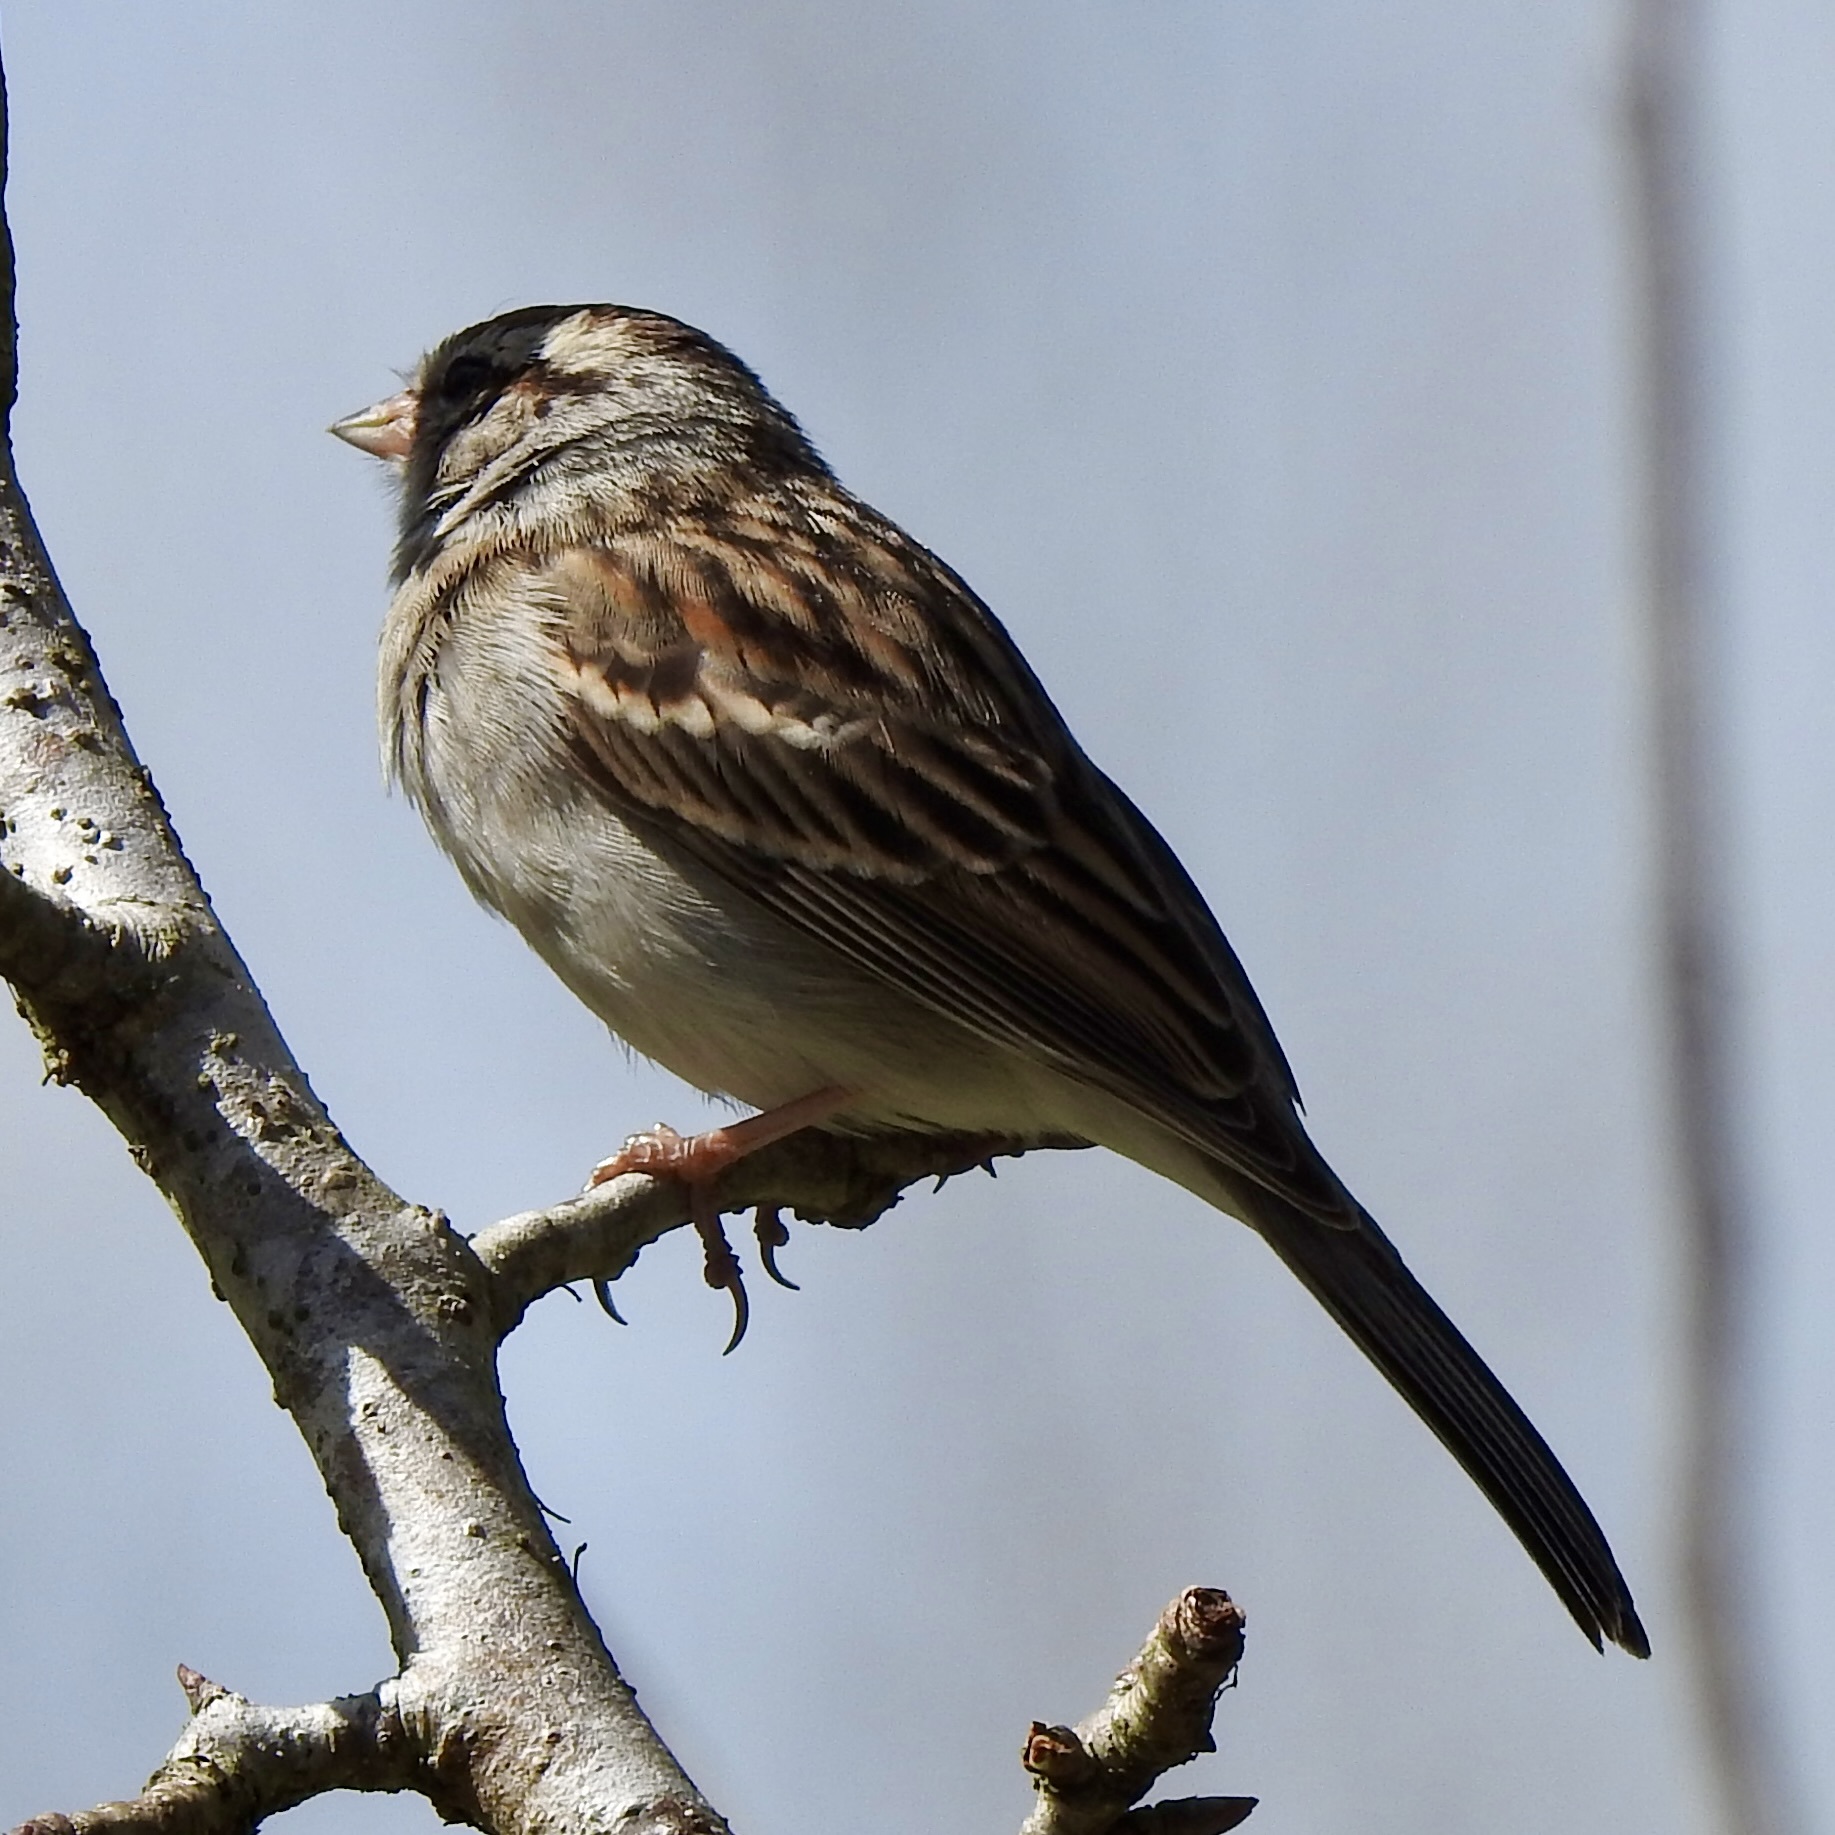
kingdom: Animalia
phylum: Chordata
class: Aves
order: Passeriformes
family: Passerellidae
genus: Spizella
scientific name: Spizella passerina
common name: Chipping sparrow
